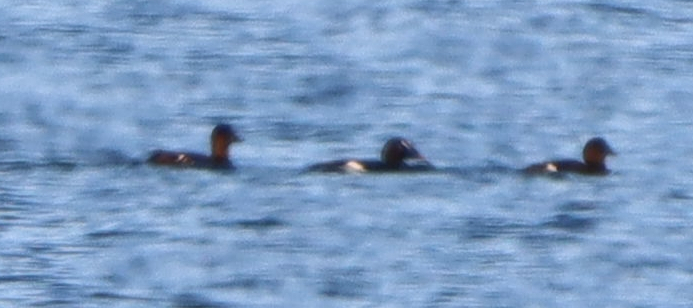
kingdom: Animalia
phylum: Chordata
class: Aves
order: Anseriformes
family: Anatidae
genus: Melanitta
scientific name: Melanitta deglandi
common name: White-winged scoter
